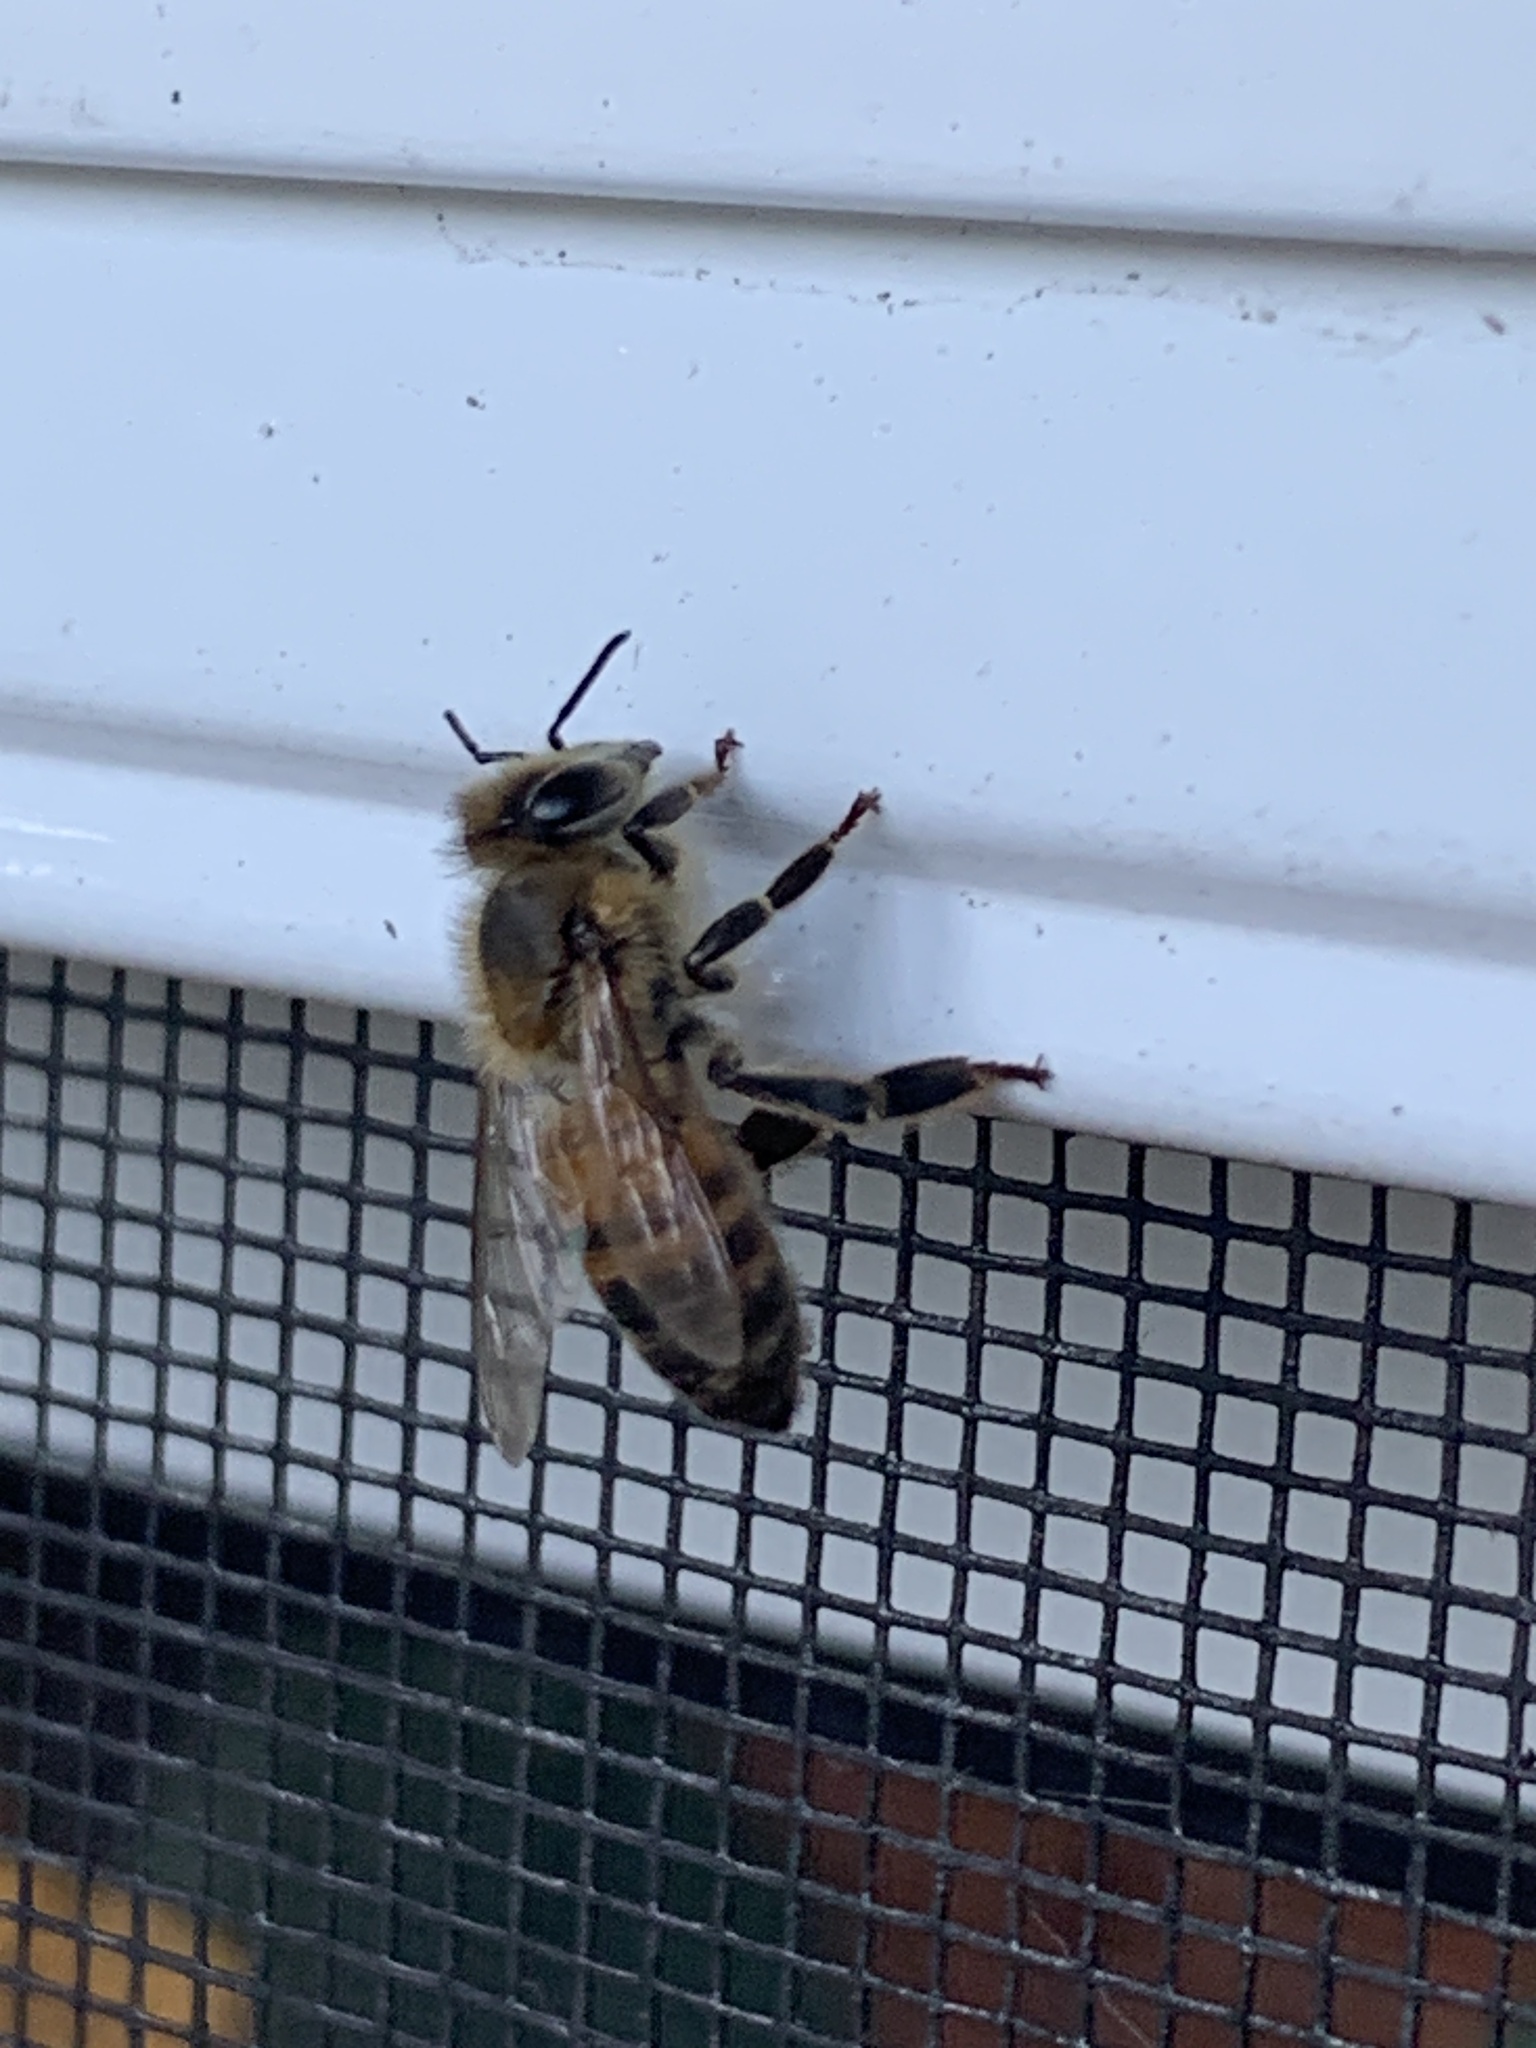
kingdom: Animalia
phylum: Arthropoda
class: Insecta
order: Hymenoptera
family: Apidae
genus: Apis
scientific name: Apis mellifera
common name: Honey bee
